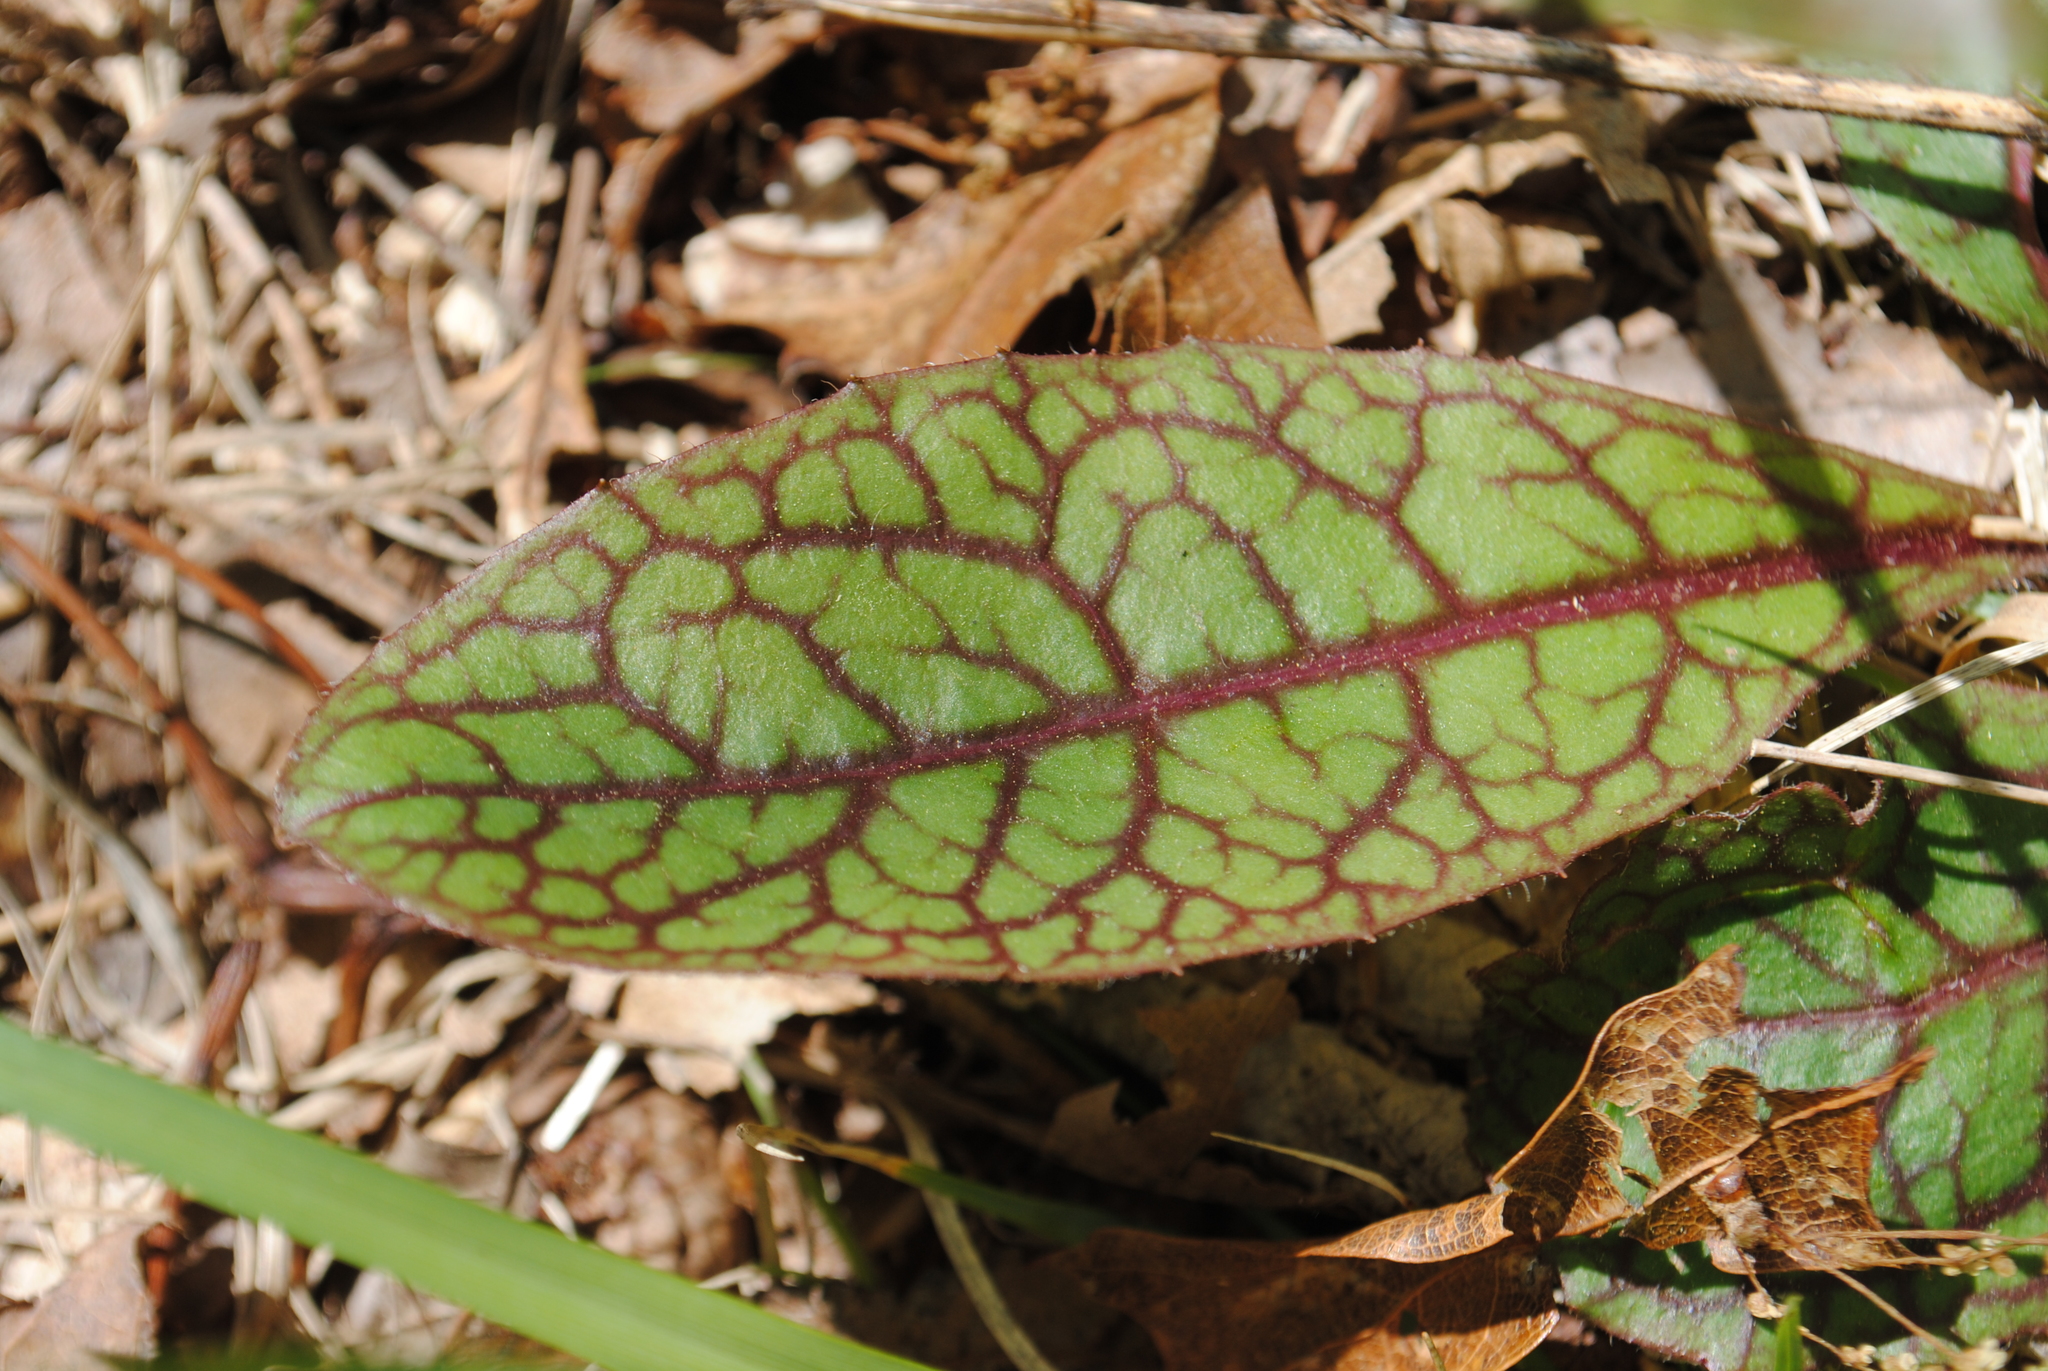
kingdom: Plantae
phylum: Tracheophyta
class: Magnoliopsida
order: Asterales
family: Asteraceae
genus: Hieracium
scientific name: Hieracium venosum
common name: Rattlesnake hawkweed
